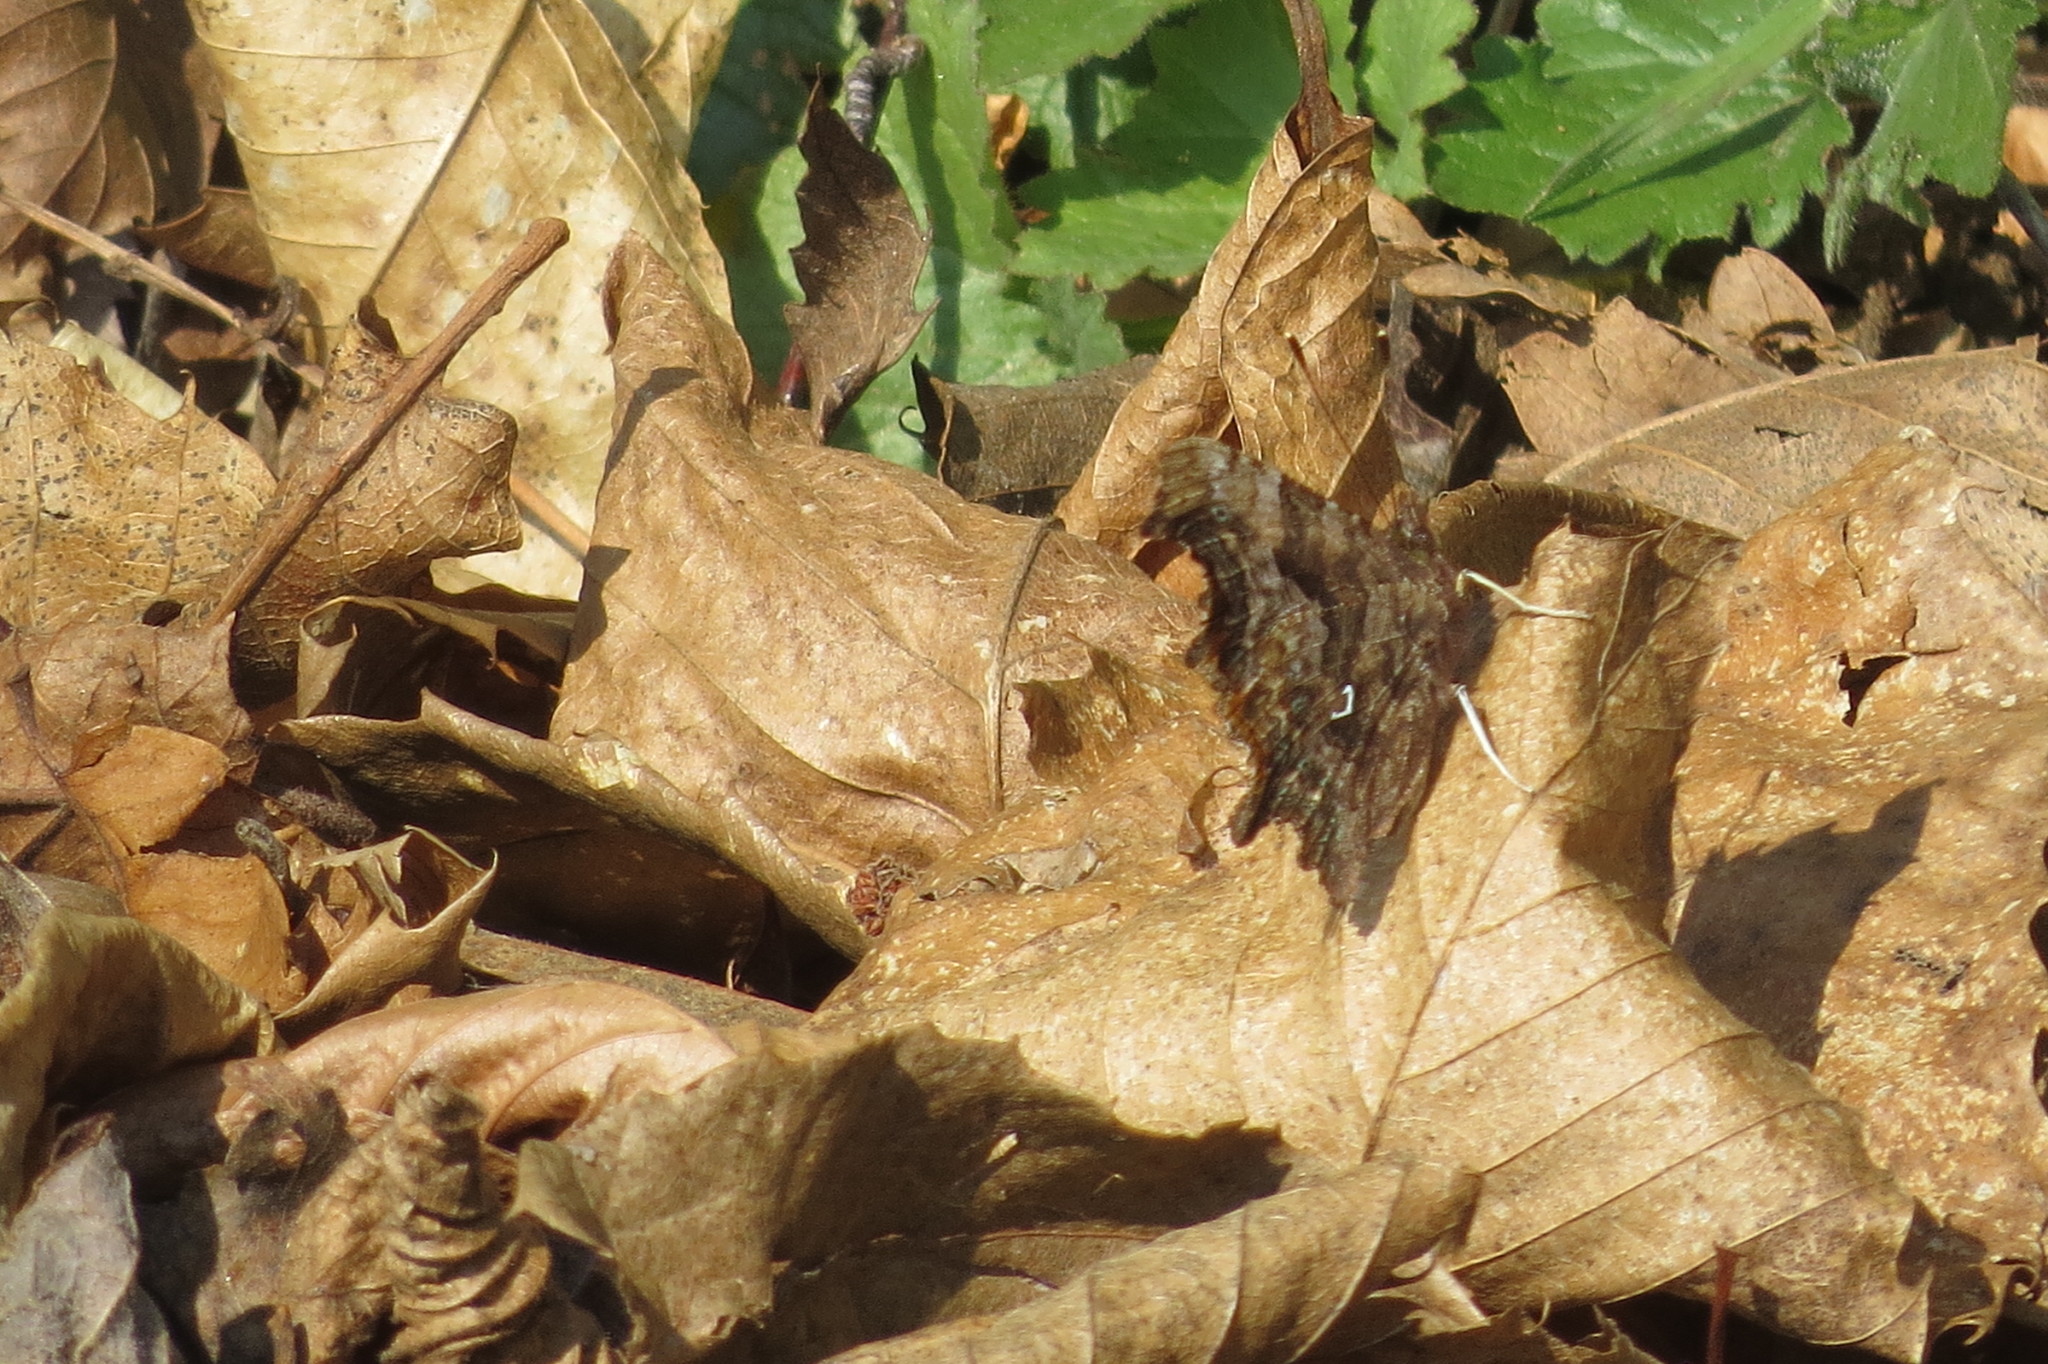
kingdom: Animalia
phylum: Arthropoda
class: Insecta
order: Lepidoptera
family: Nymphalidae
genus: Polygonia
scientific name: Polygonia c-album
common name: Comma
